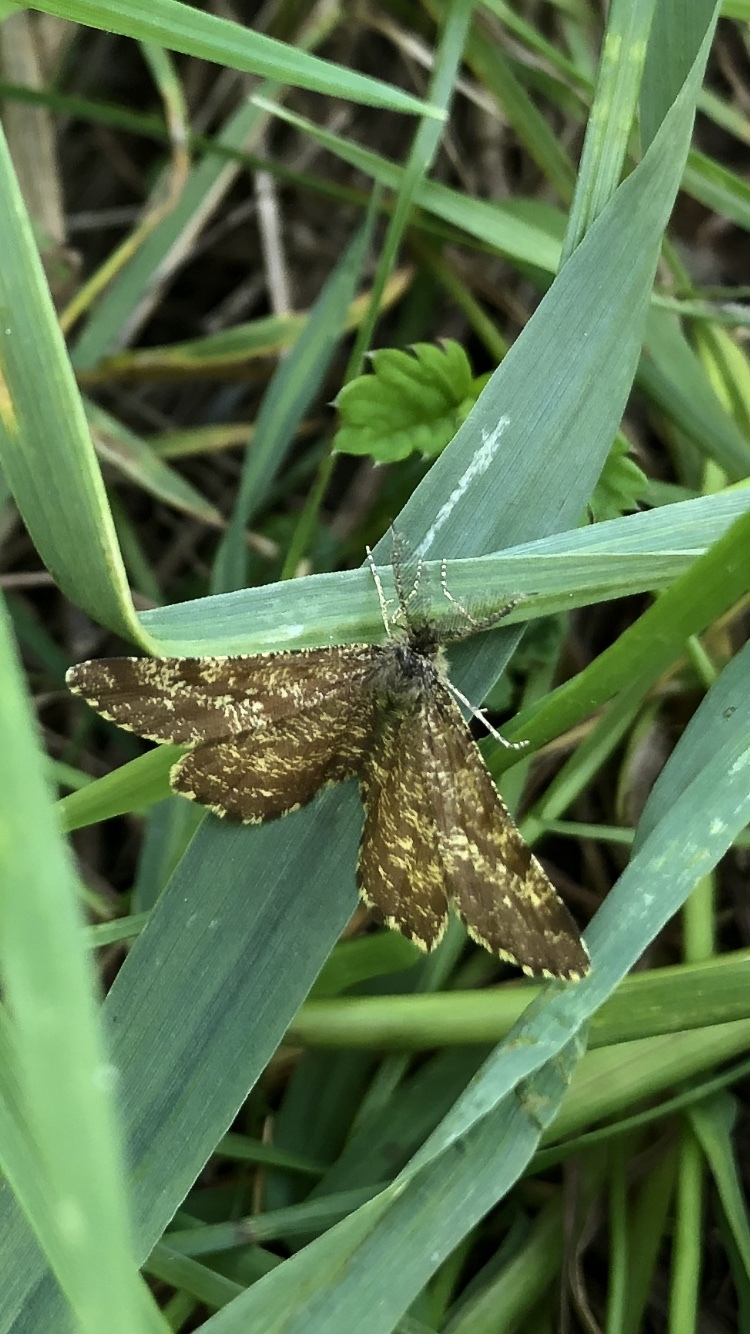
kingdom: Animalia
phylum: Arthropoda
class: Insecta
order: Lepidoptera
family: Geometridae
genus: Ematurga
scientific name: Ematurga atomaria
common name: Common heath
